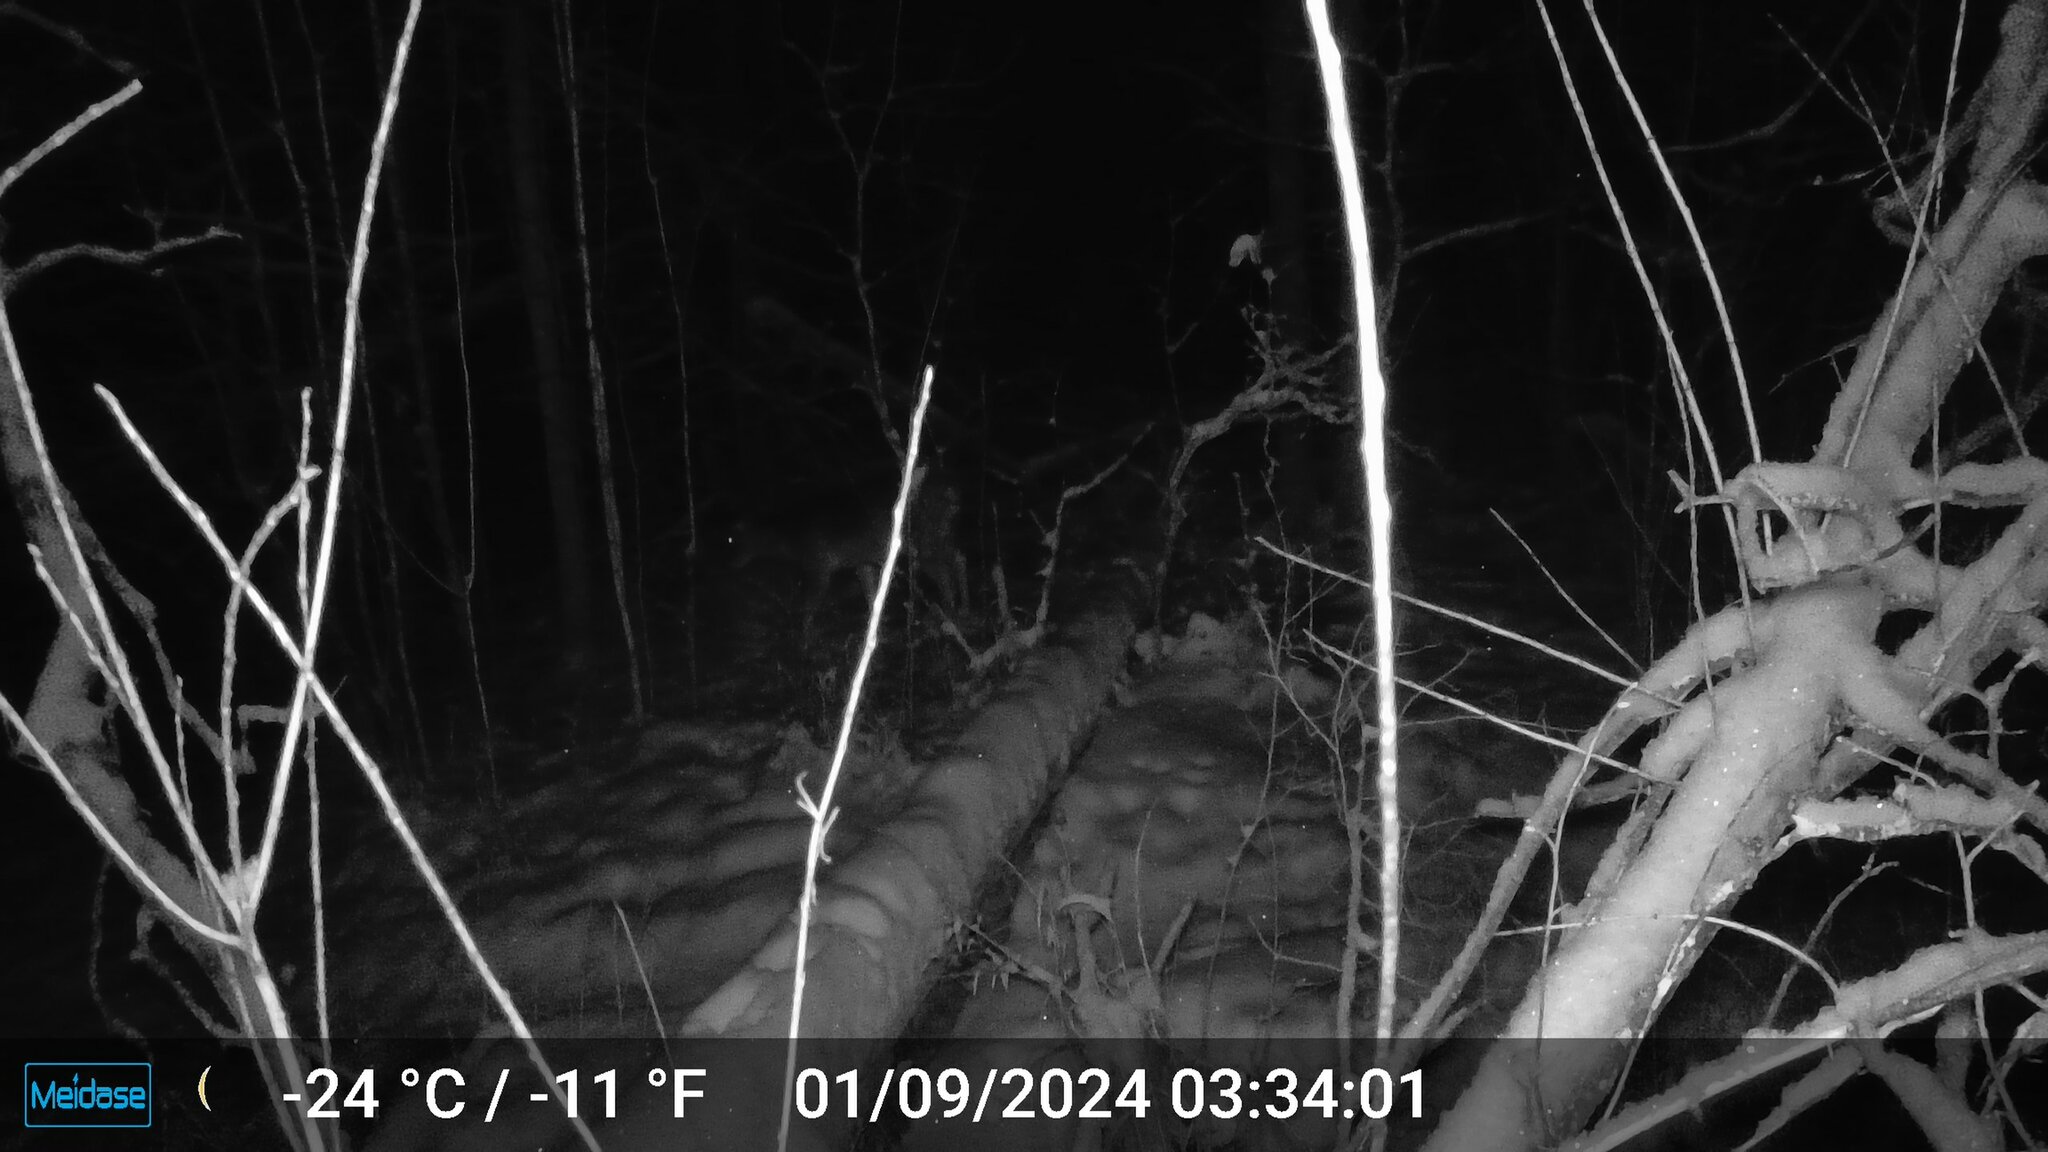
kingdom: Animalia
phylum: Chordata
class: Mammalia
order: Artiodactyla
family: Cervidae
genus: Odocoileus
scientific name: Odocoileus virginianus
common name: White-tailed deer
